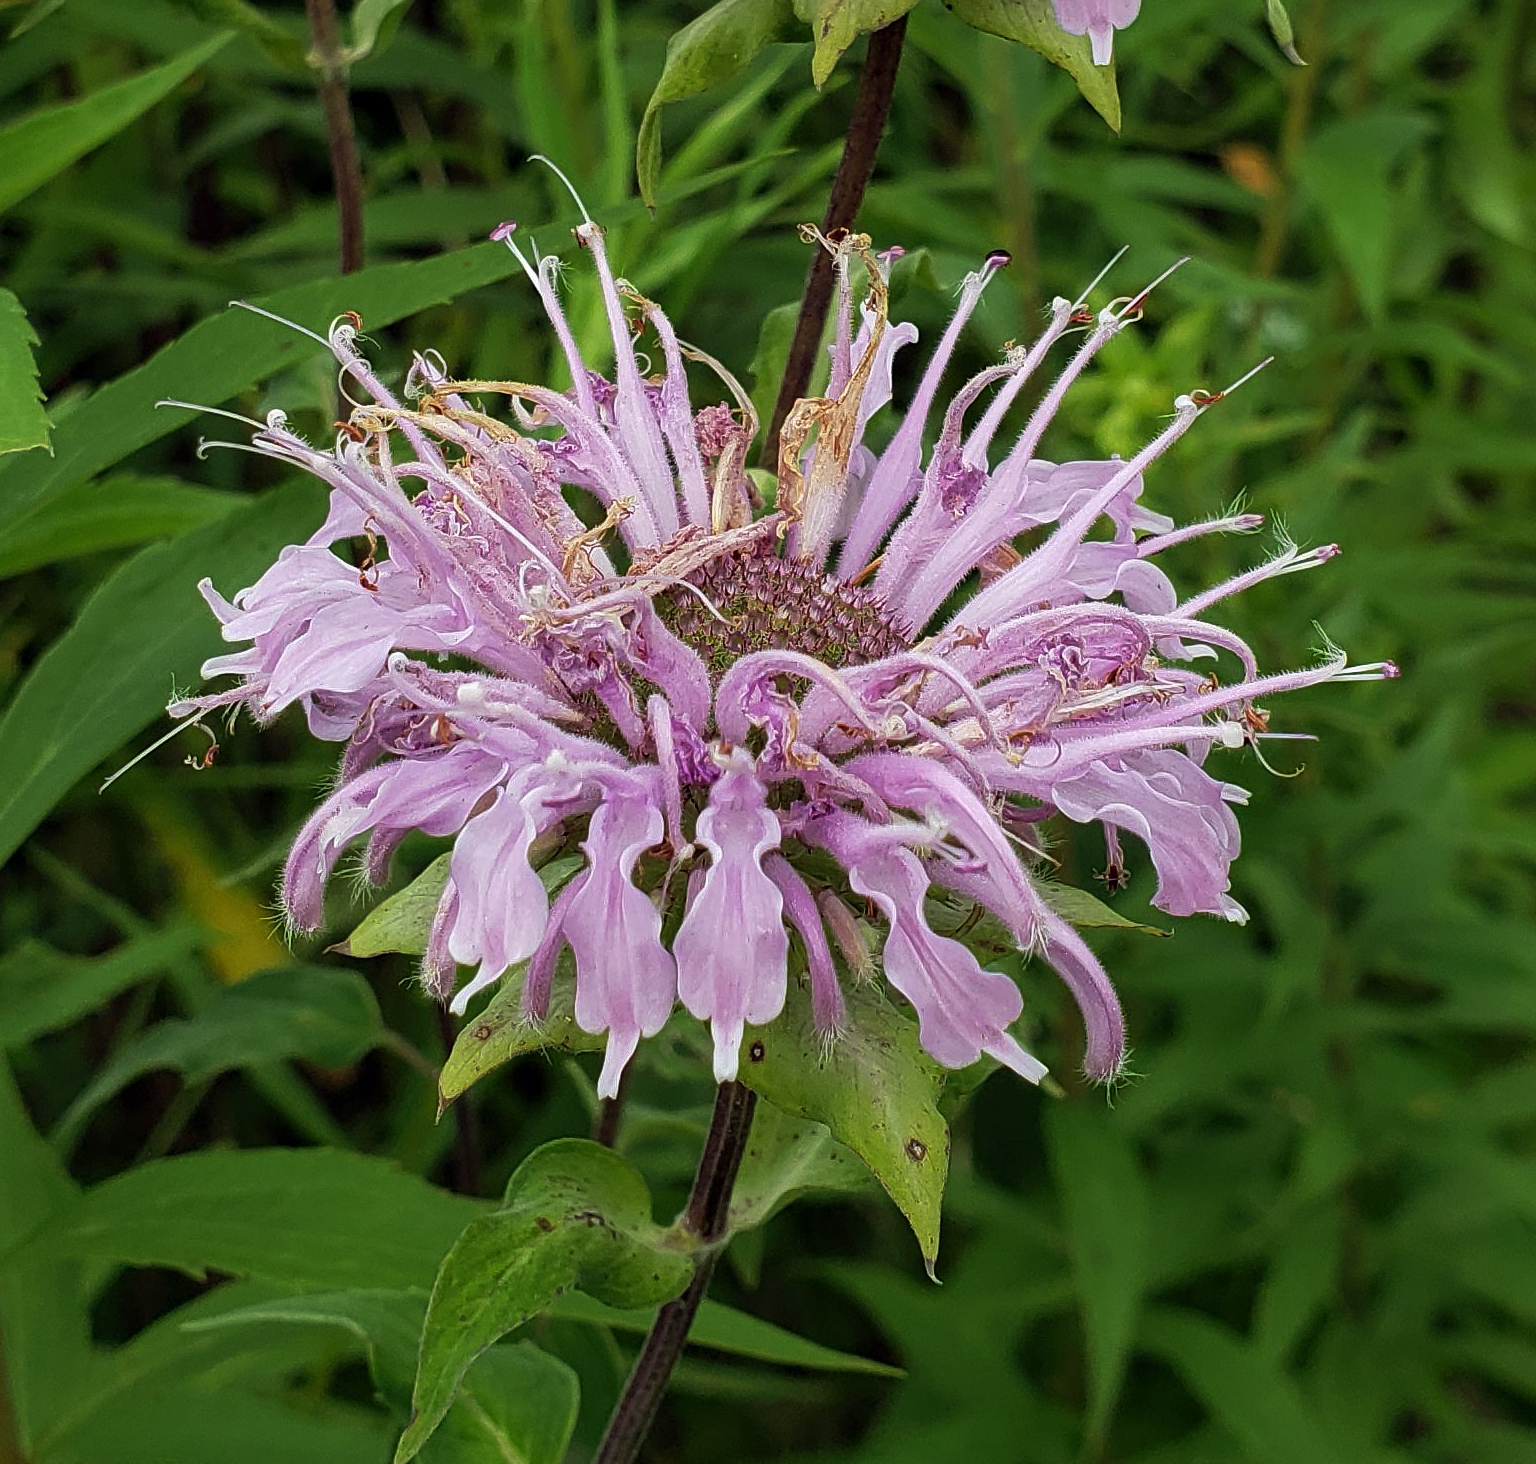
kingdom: Plantae
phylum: Tracheophyta
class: Magnoliopsida
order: Lamiales
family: Lamiaceae
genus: Monarda
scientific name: Monarda fistulosa
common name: Purple beebalm
